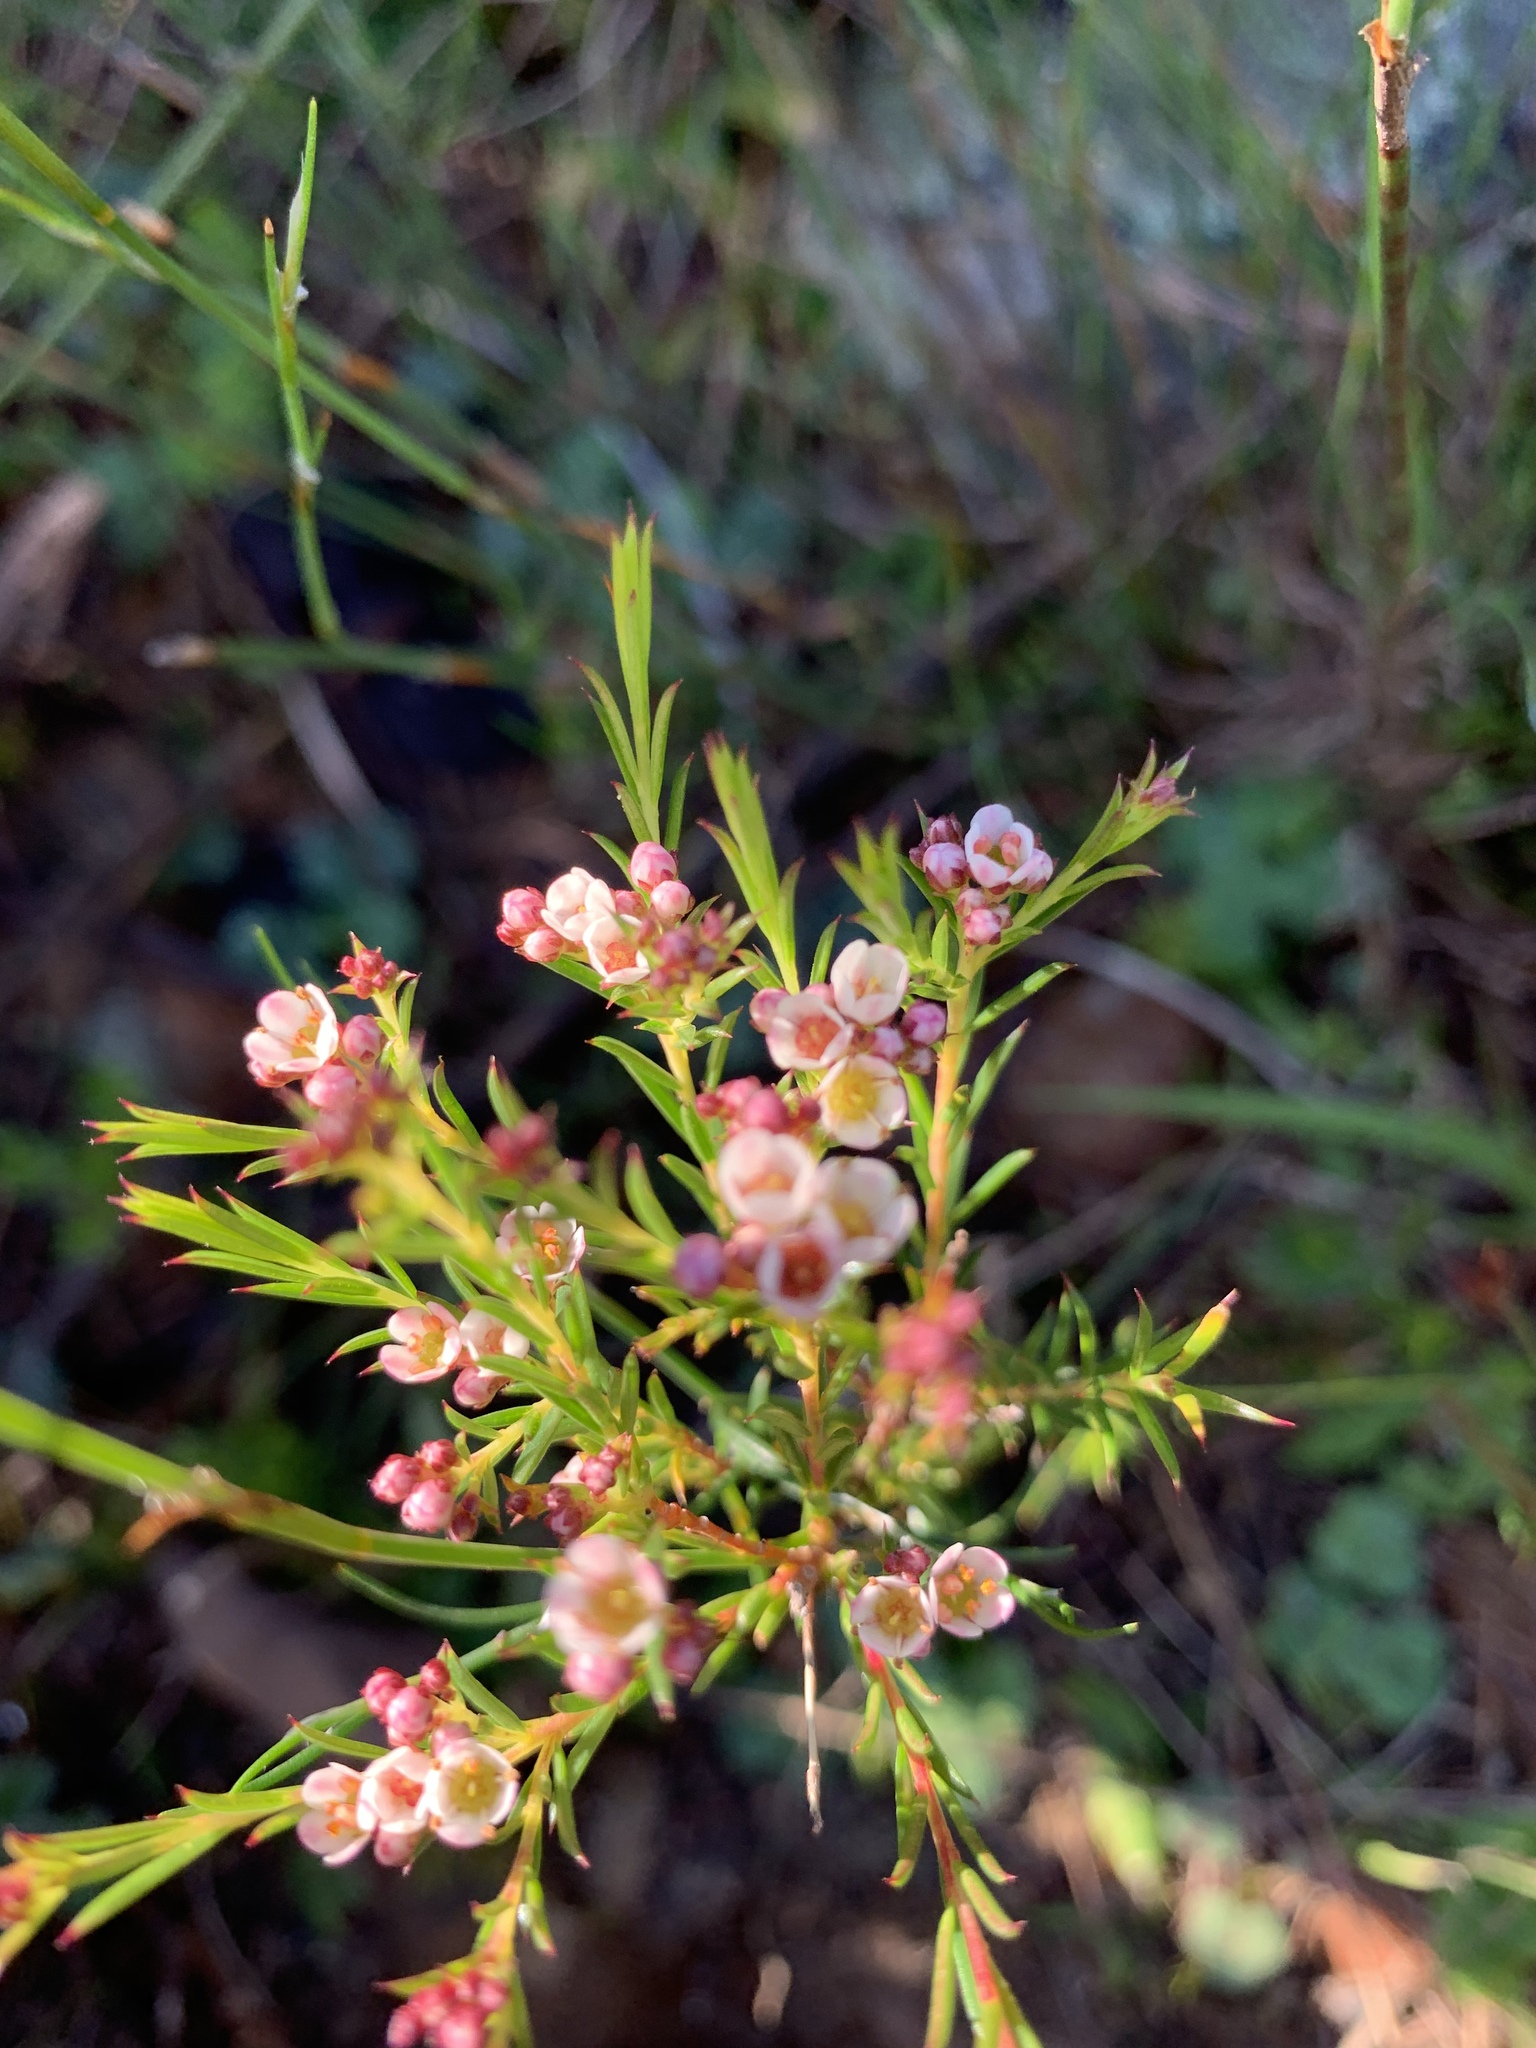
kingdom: Plantae
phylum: Tracheophyta
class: Magnoliopsida
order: Sapindales
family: Rutaceae
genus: Diosma
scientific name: Diosma hirsuta
